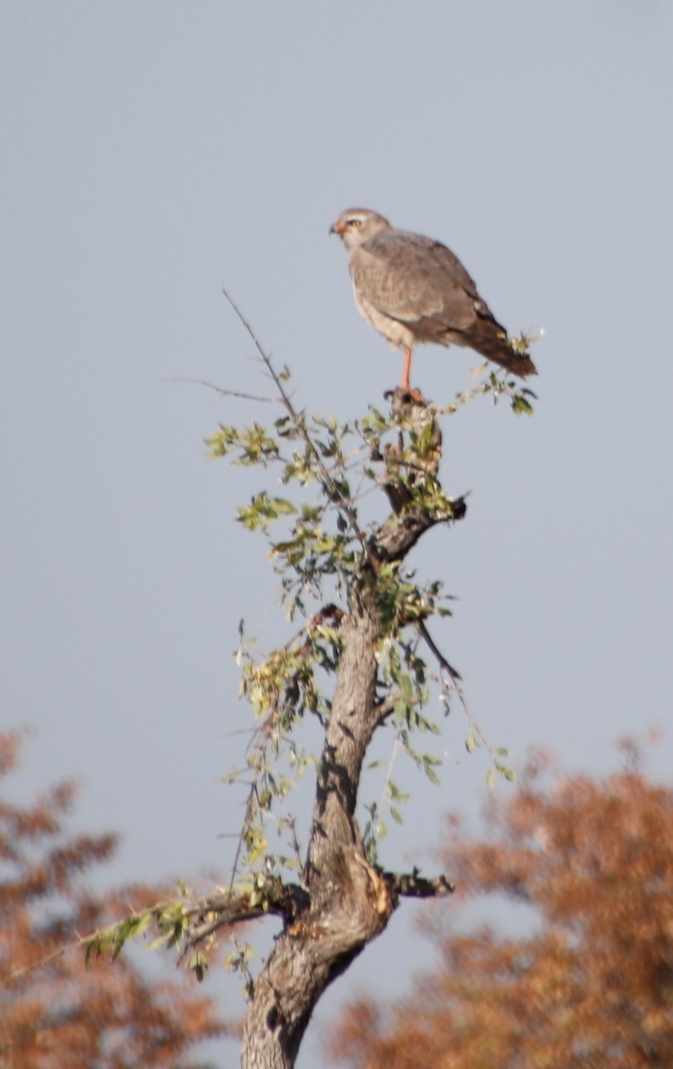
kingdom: Animalia
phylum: Chordata
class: Aves
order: Accipitriformes
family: Accipitridae
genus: Melierax
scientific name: Melierax canorus
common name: Pale chanting-goshawk
